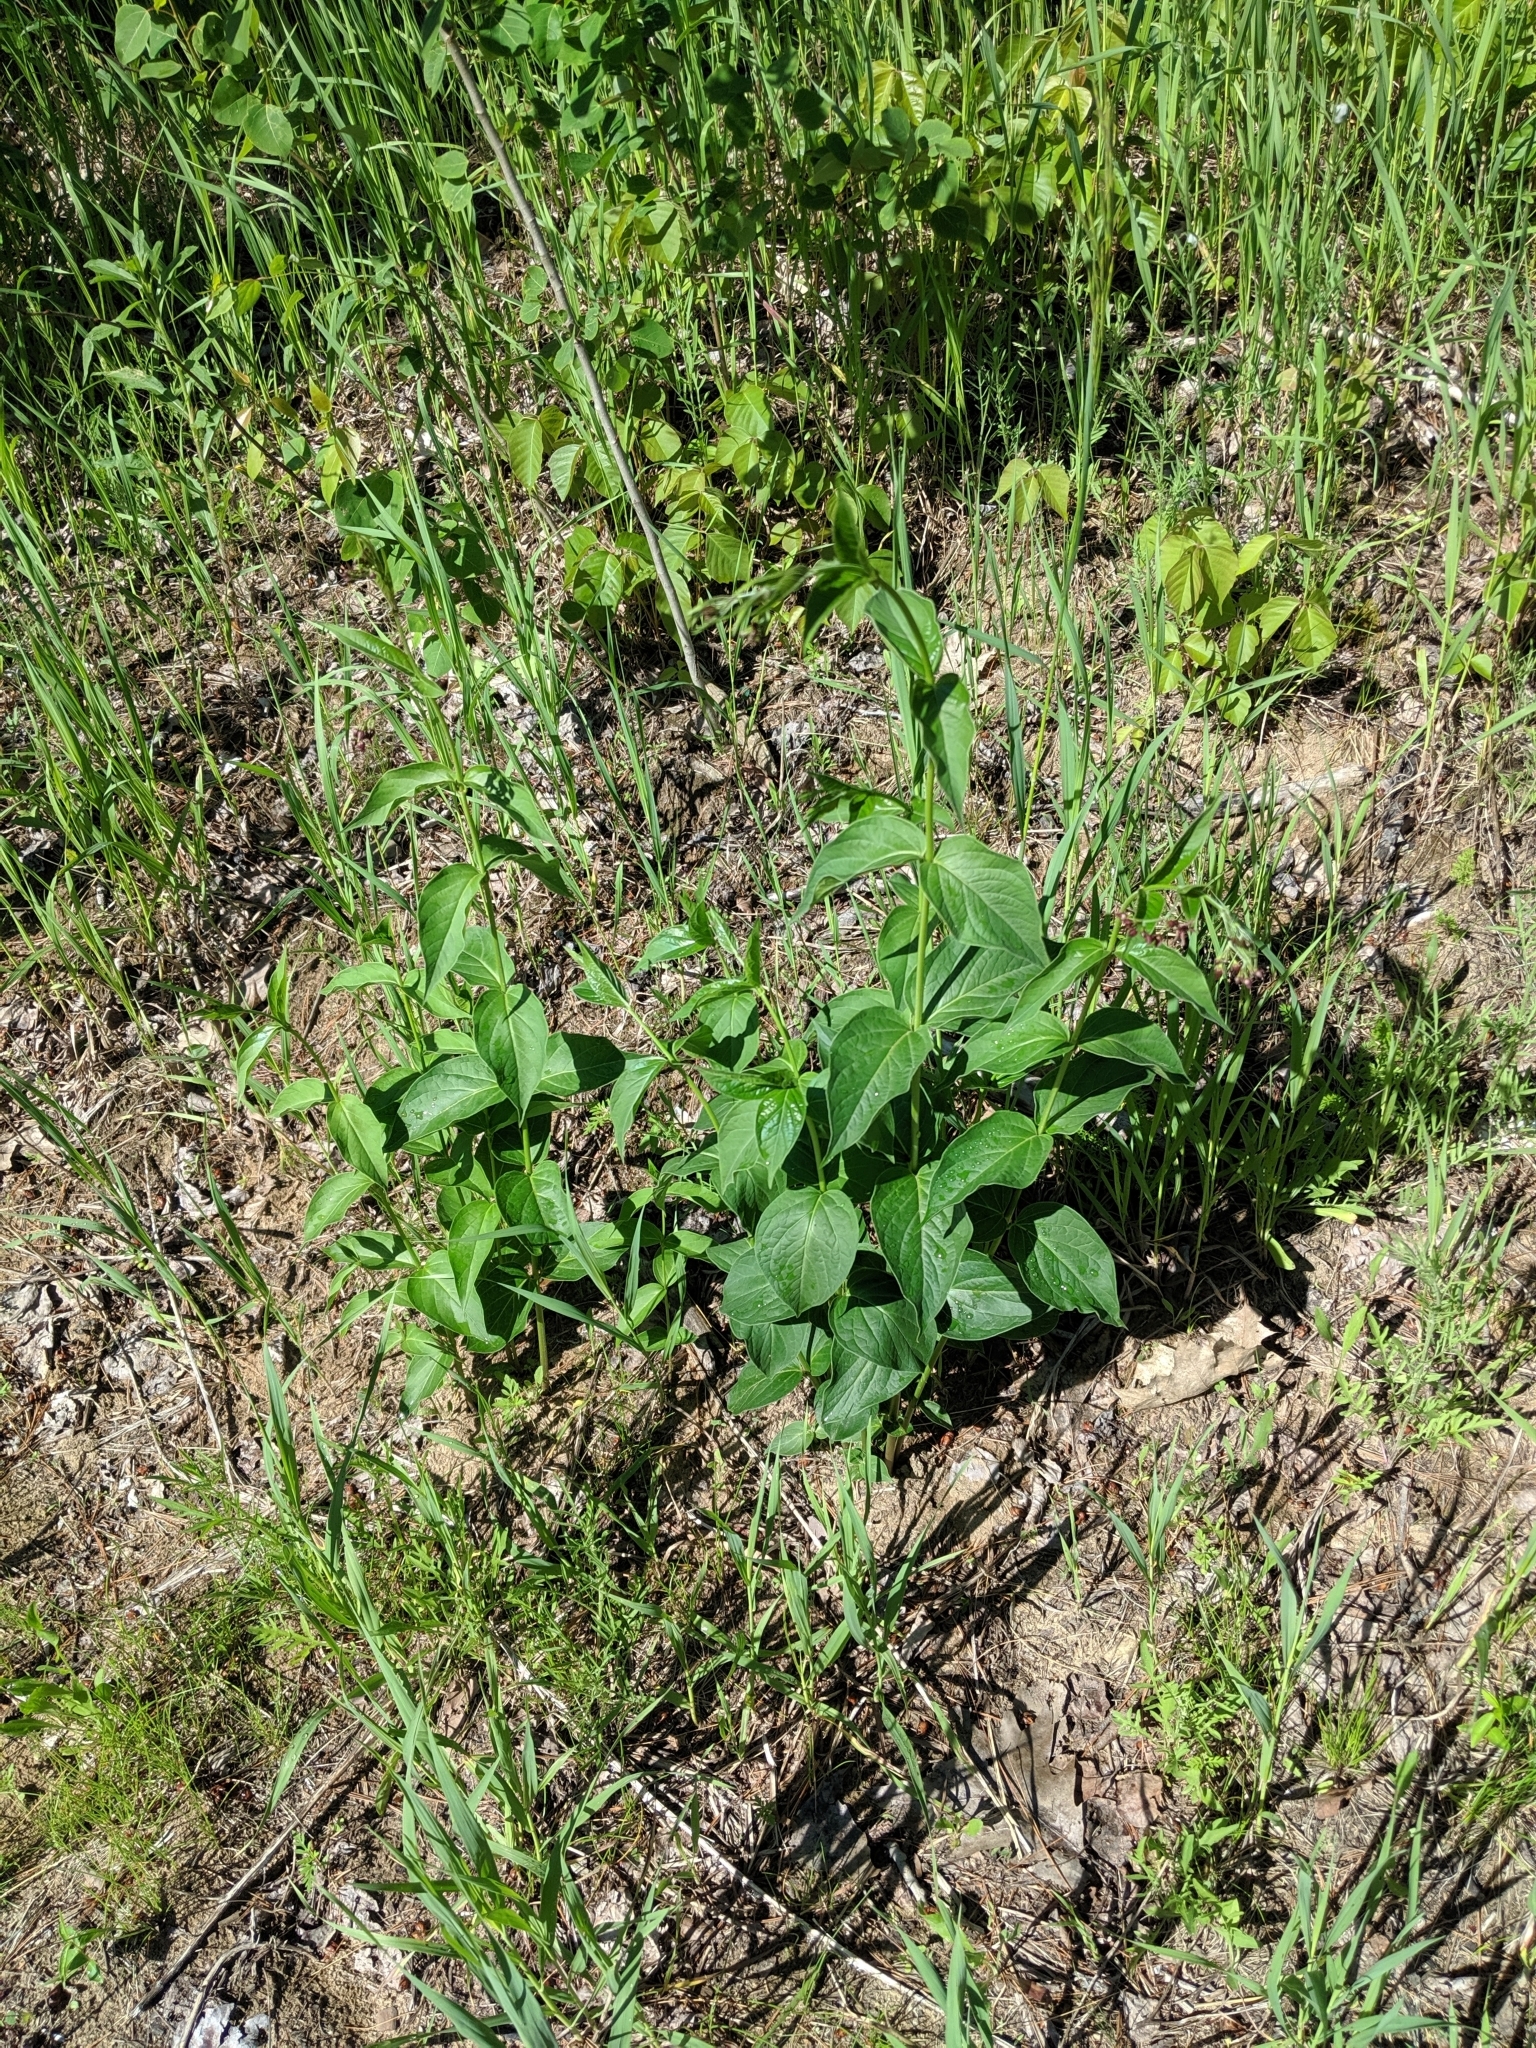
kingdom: Plantae
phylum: Tracheophyta
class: Magnoliopsida
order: Gentianales
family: Apocynaceae
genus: Vincetoxicum
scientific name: Vincetoxicum rossicum
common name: Dog-strangling vine
